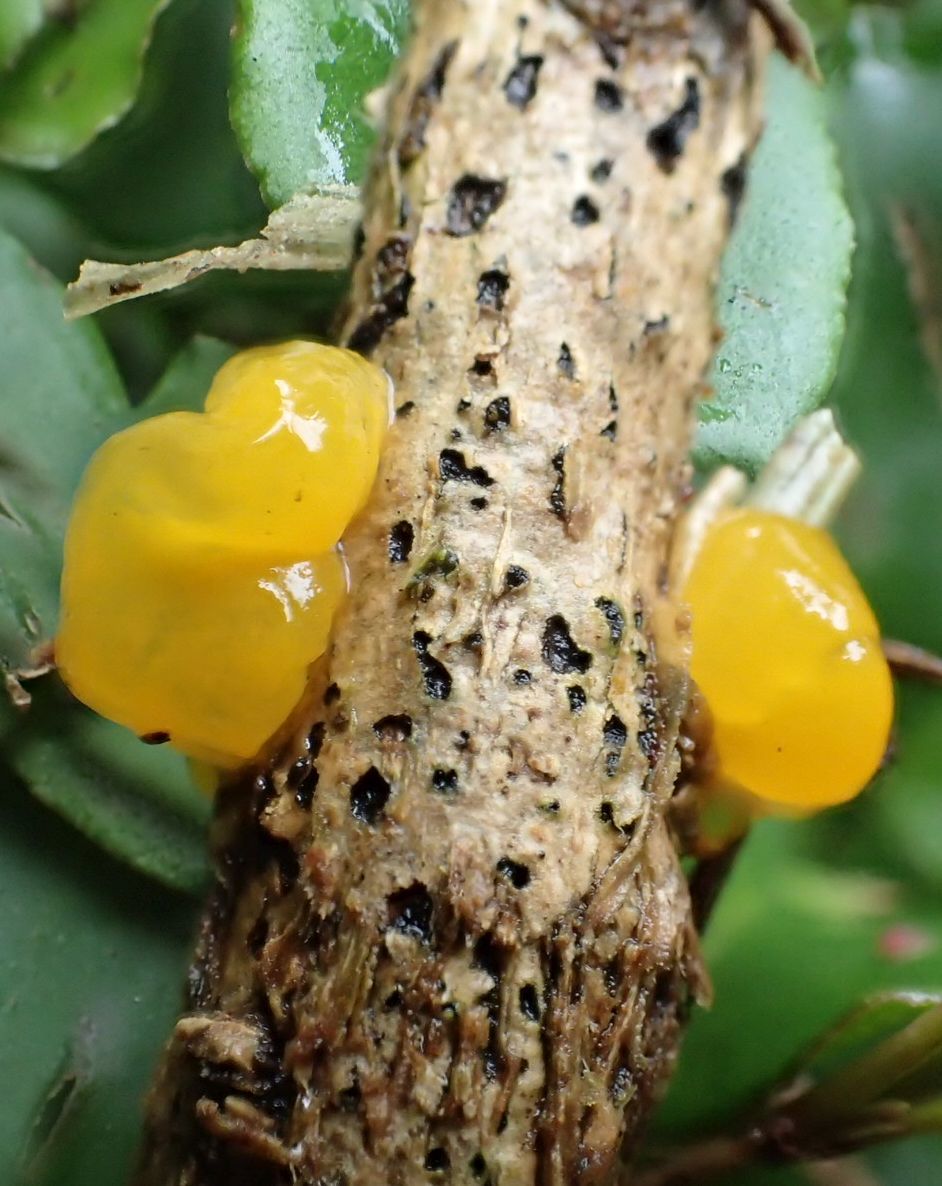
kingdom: Fungi
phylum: Basidiomycota
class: Tremellomycetes
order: Tremellales
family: Tremellaceae
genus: Tremella
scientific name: Tremella mesenterica
